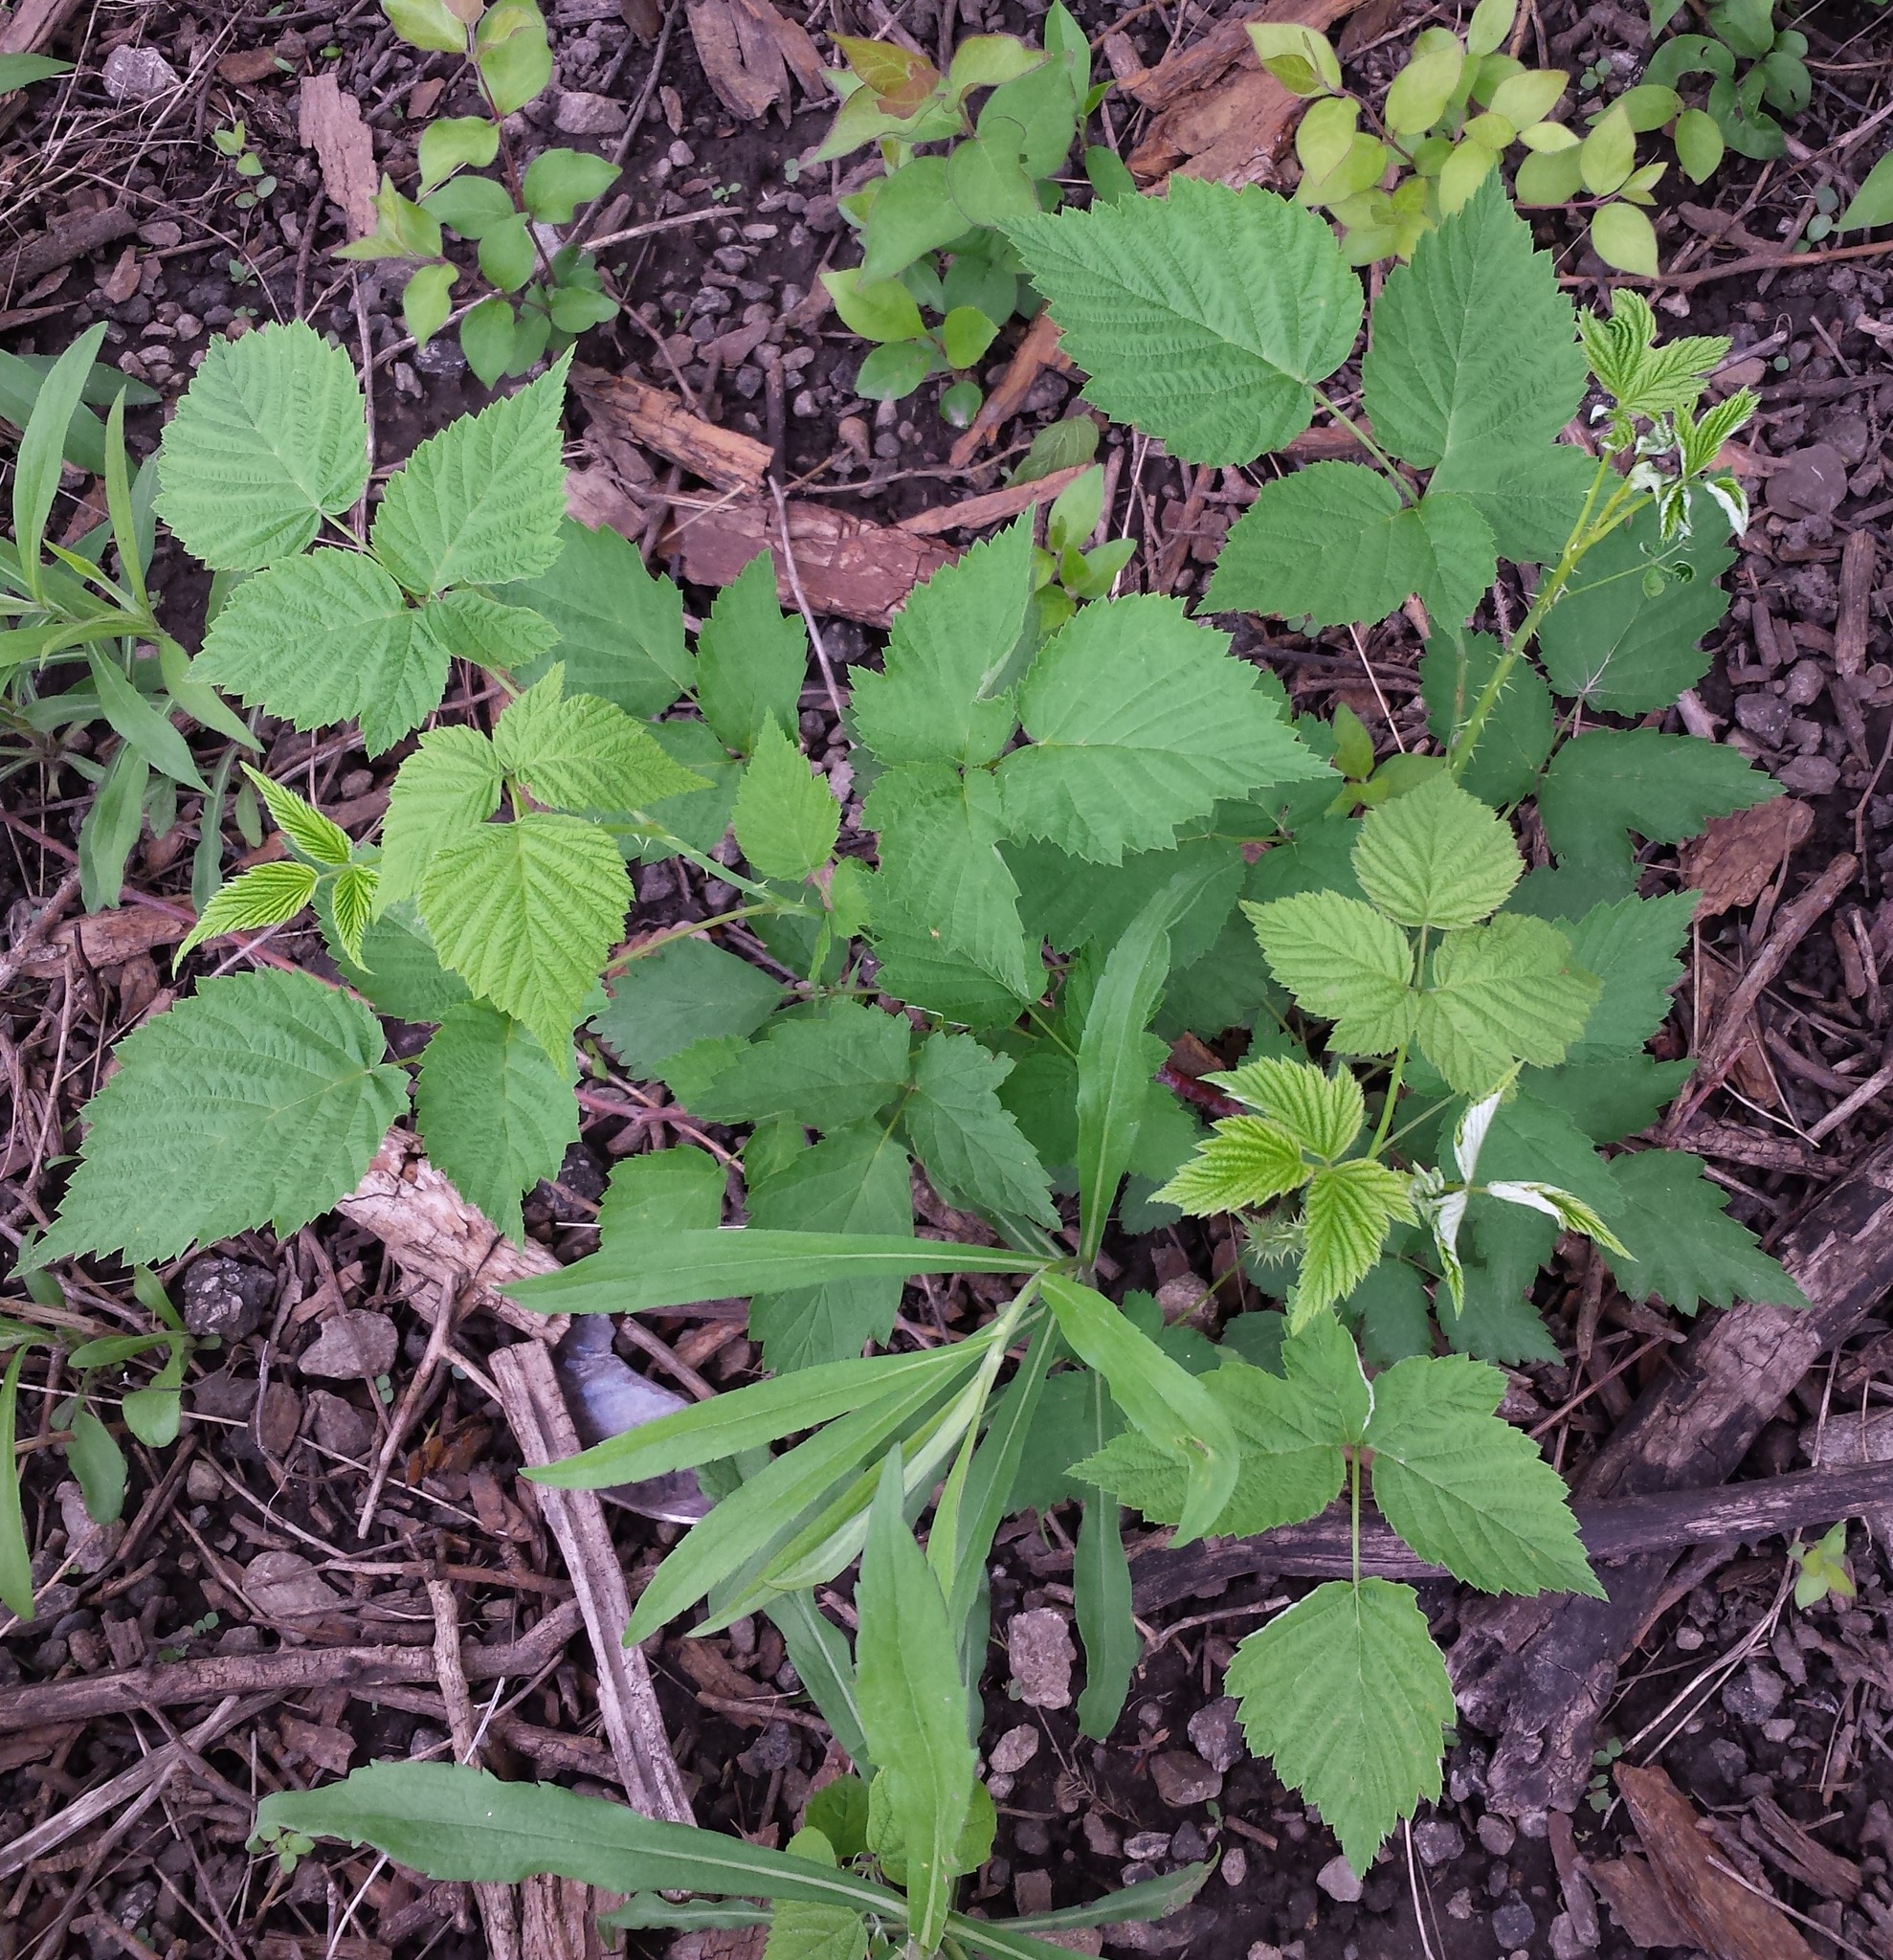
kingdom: Plantae
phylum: Tracheophyta
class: Magnoliopsida
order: Rosales
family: Rosaceae
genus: Rubus
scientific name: Rubus occidentalis
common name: Black raspberry
